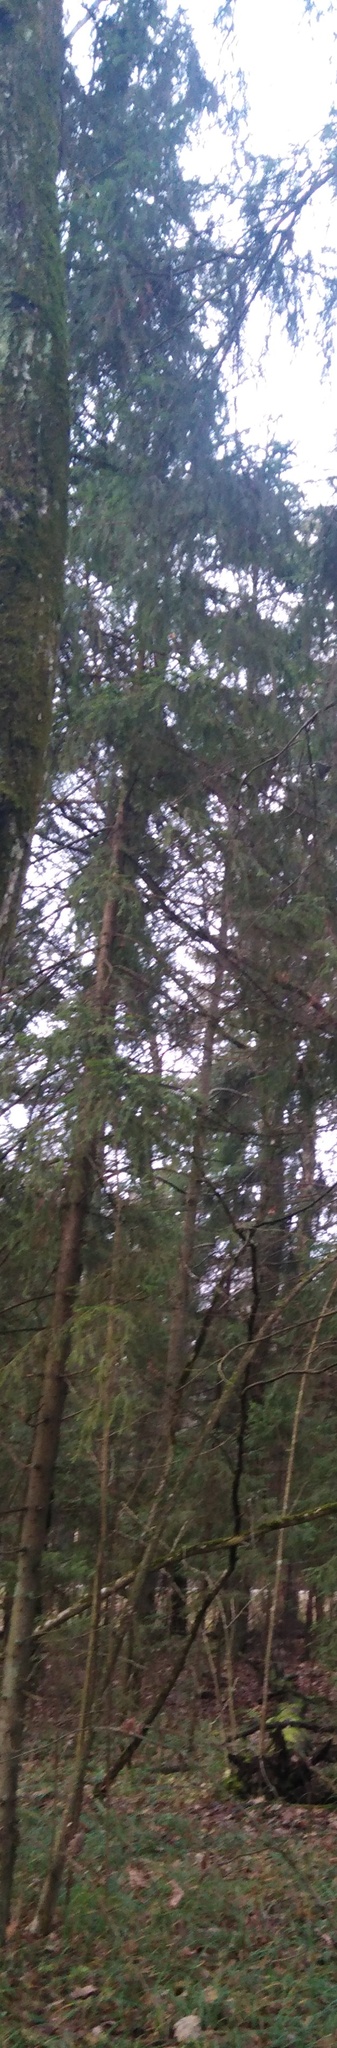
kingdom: Plantae
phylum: Tracheophyta
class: Pinopsida
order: Pinales
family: Pinaceae
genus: Picea
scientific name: Picea abies
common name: Norway spruce
